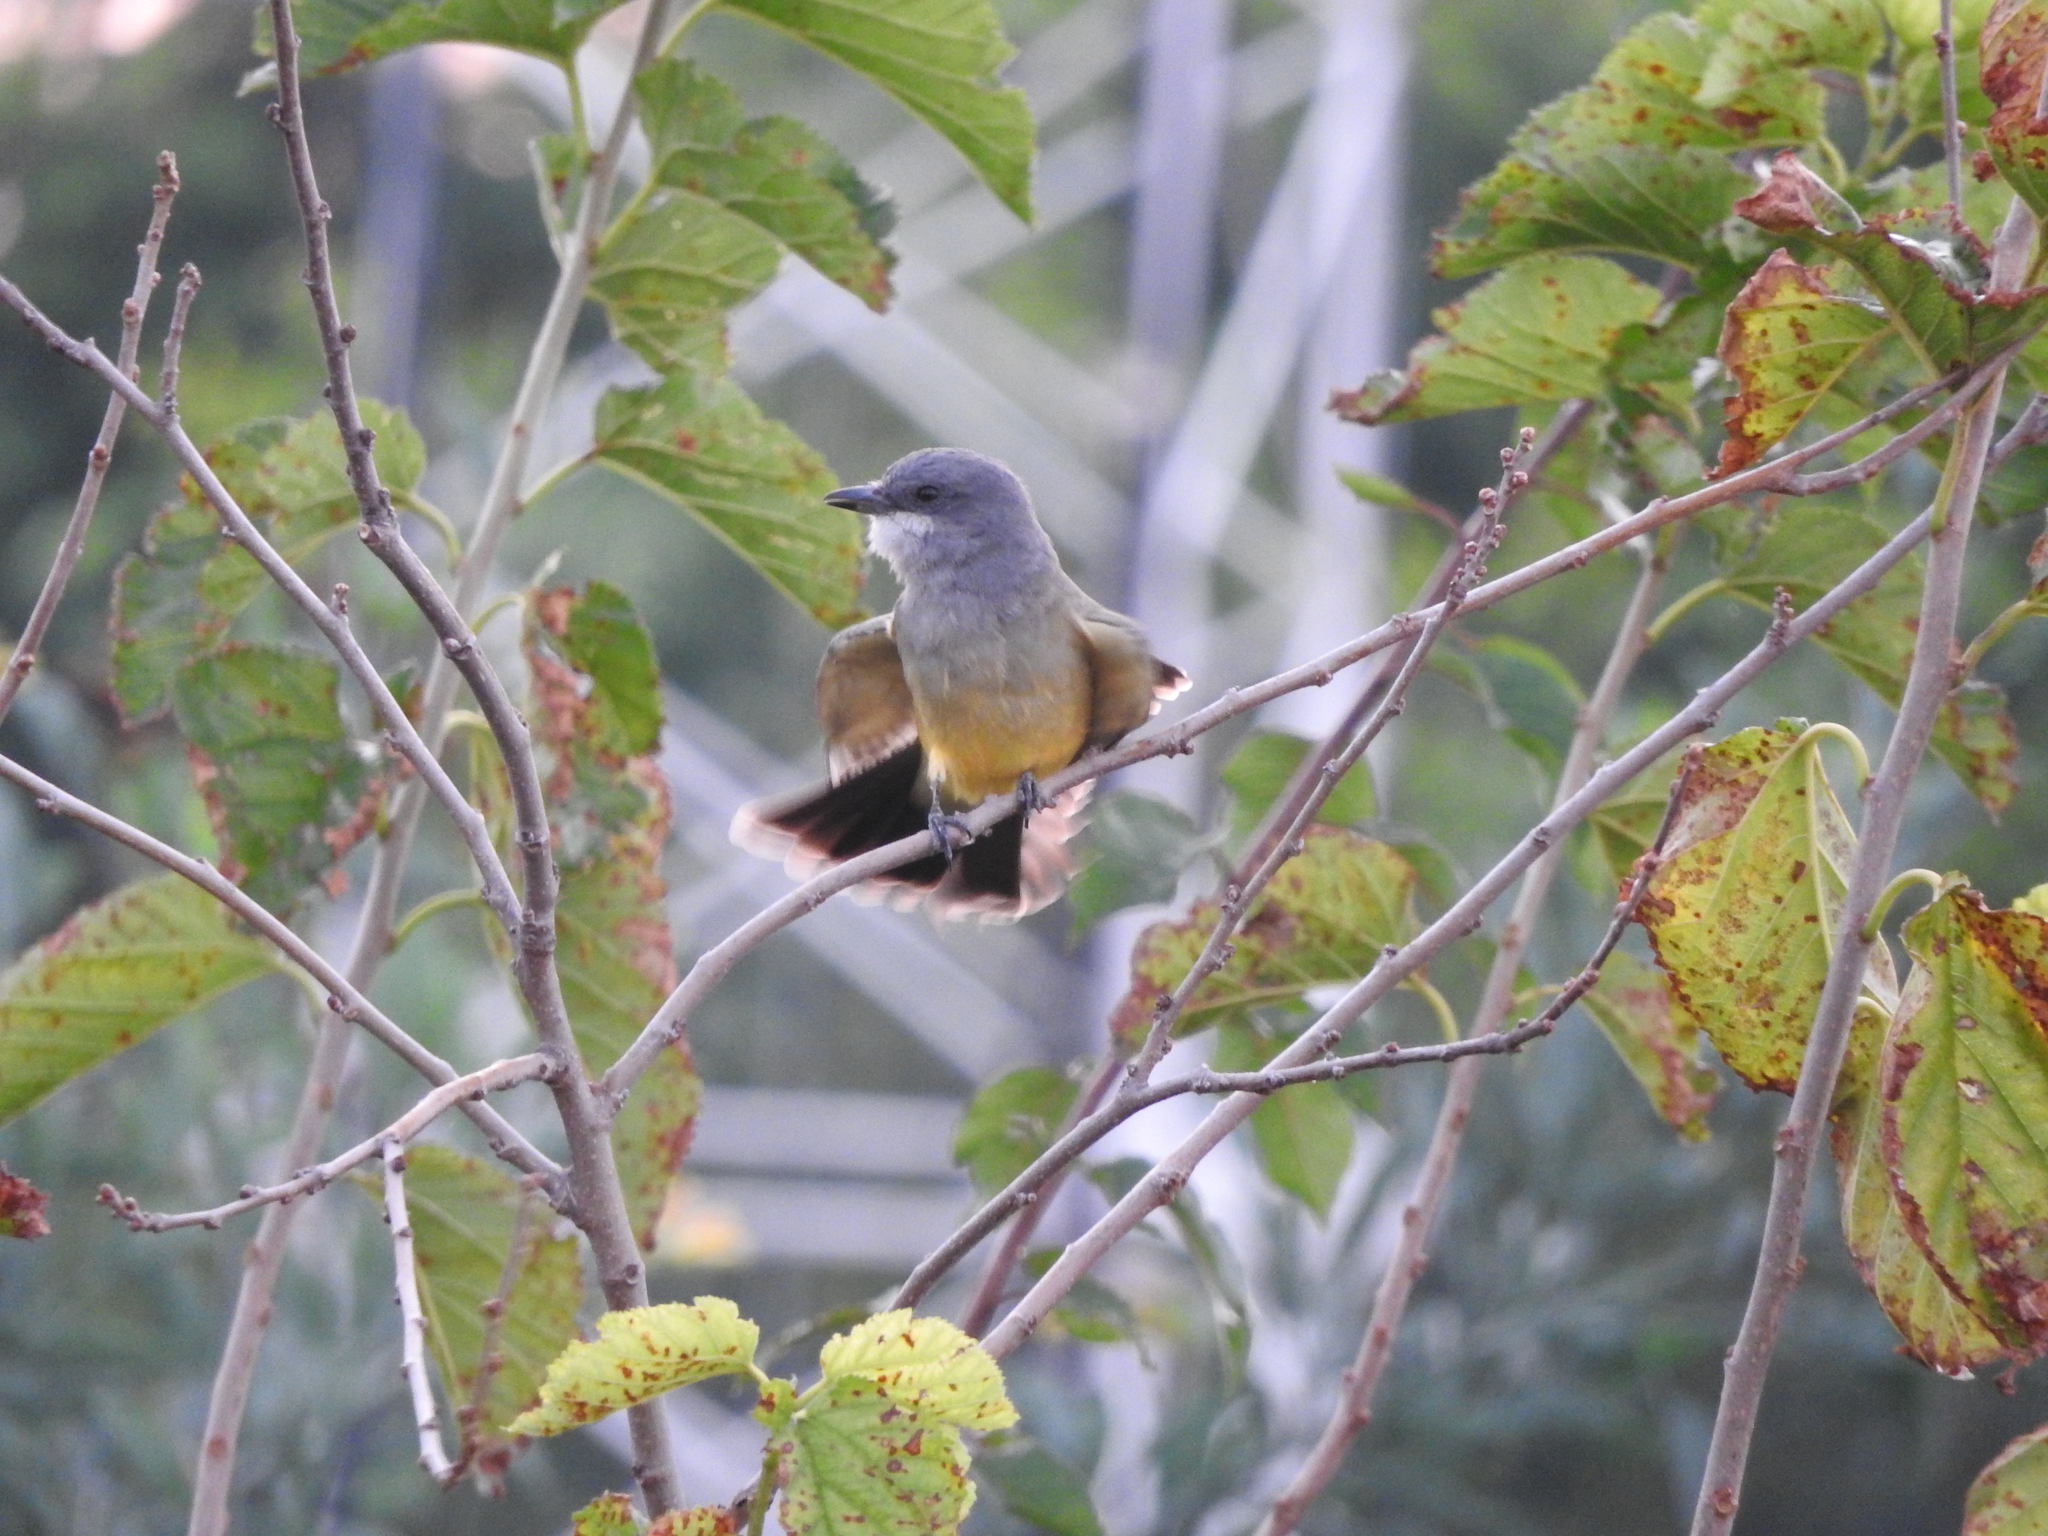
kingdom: Animalia
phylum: Chordata
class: Aves
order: Passeriformes
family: Tyrannidae
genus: Tyrannus
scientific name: Tyrannus vociferans
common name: Cassin's kingbird
